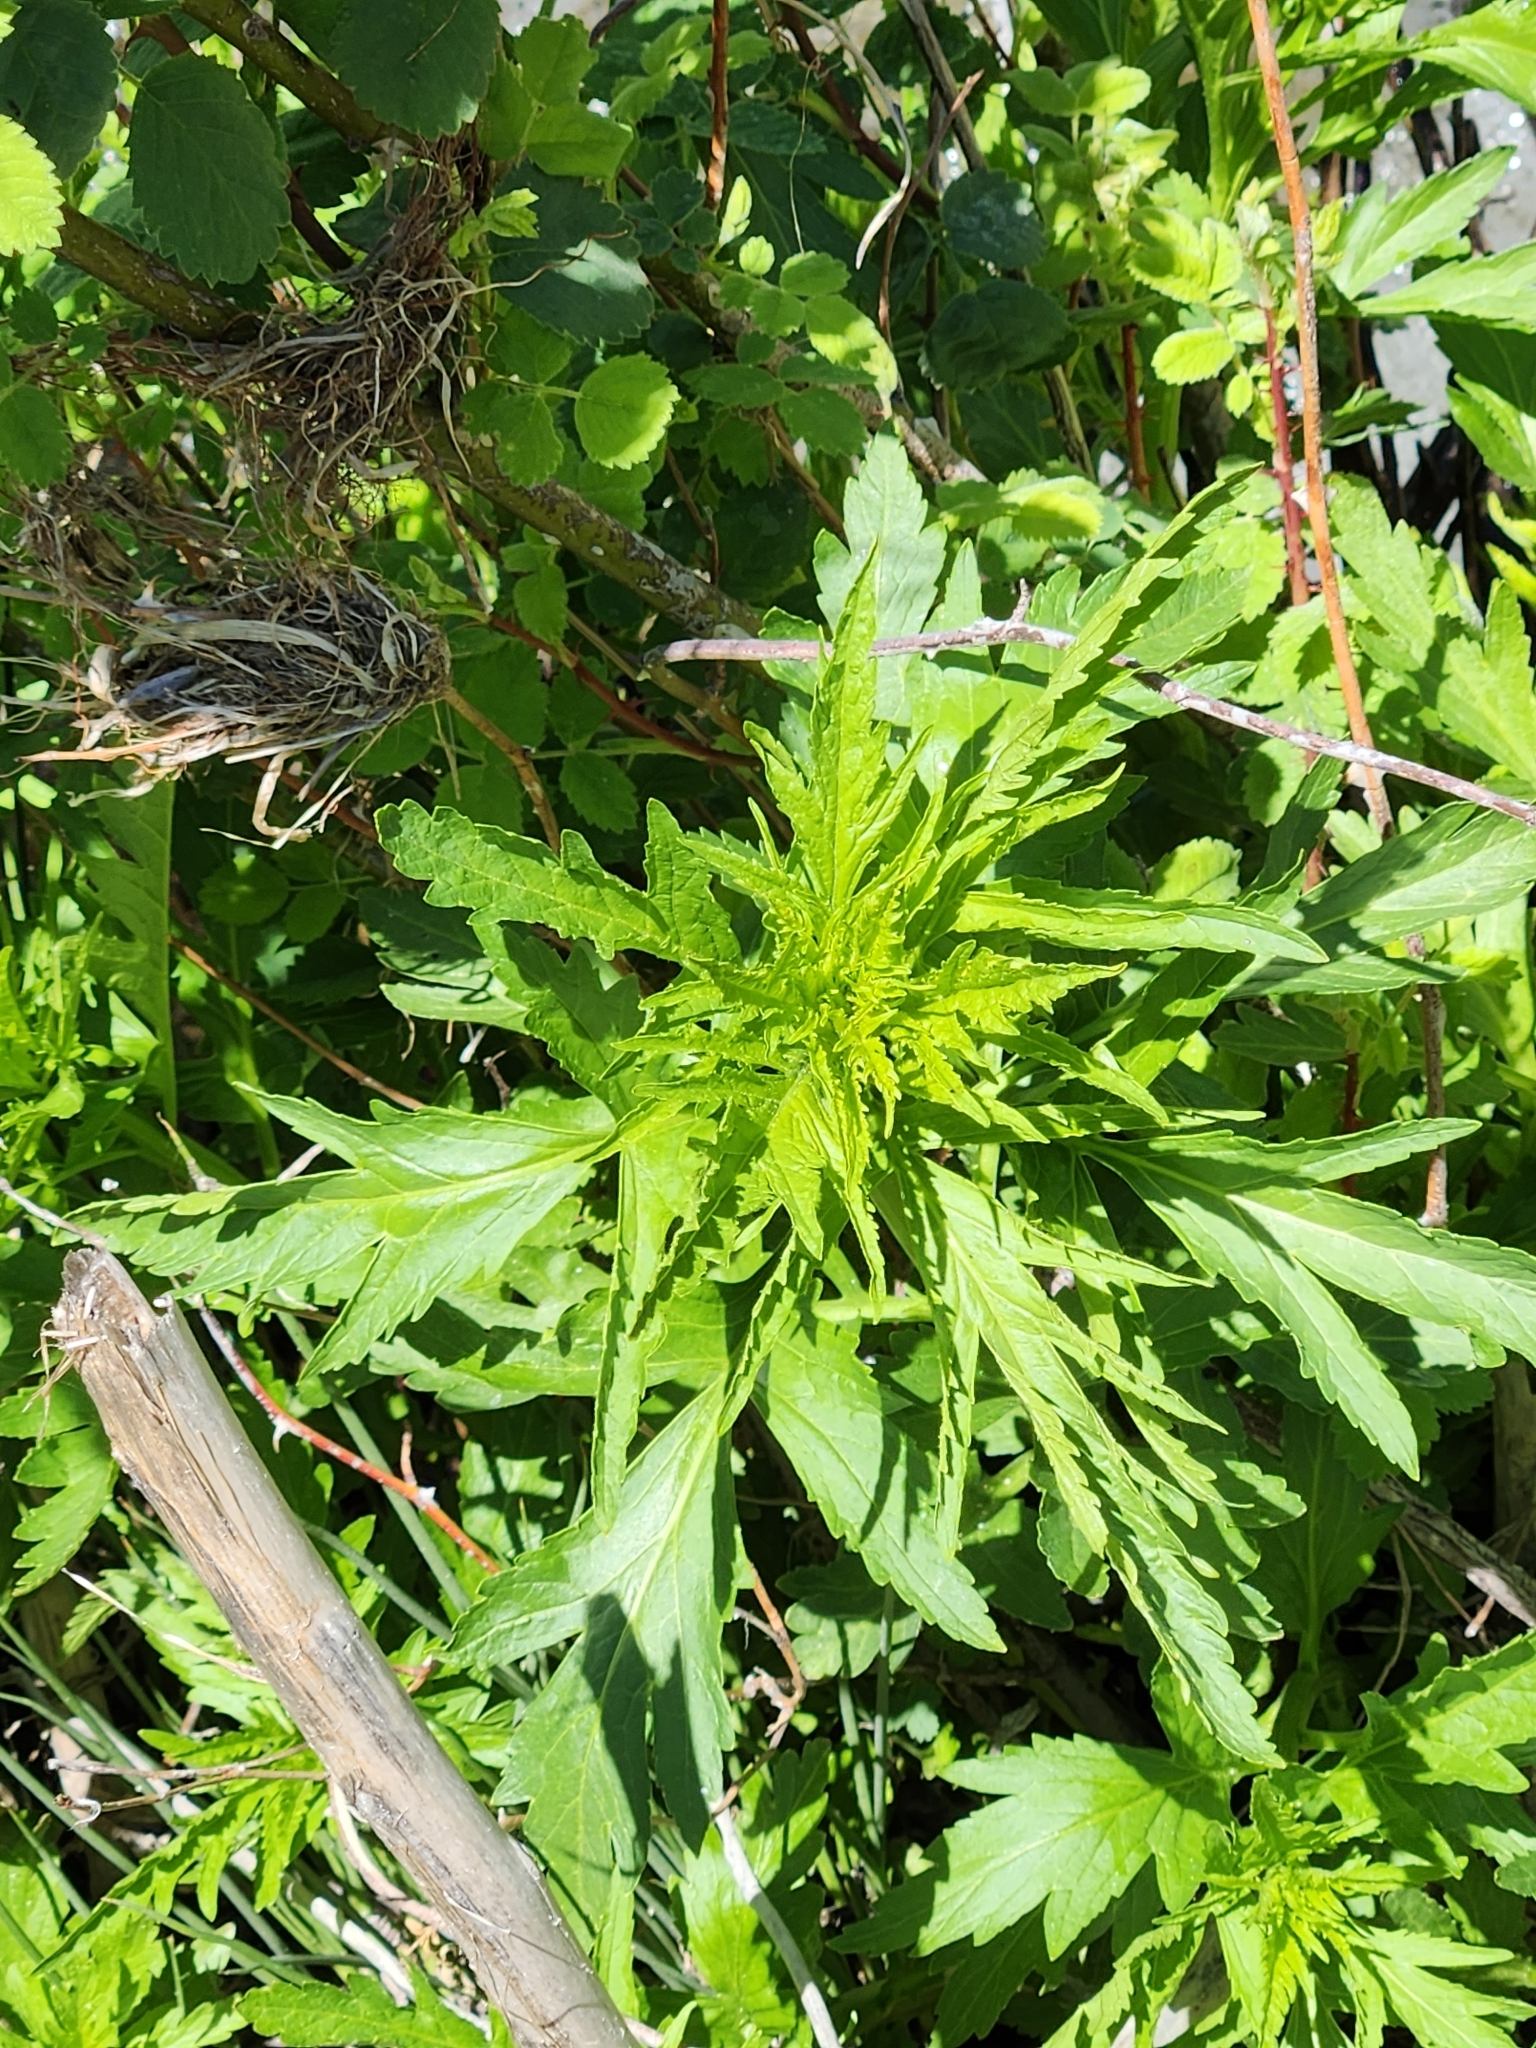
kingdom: Plantae
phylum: Tracheophyta
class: Magnoliopsida
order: Asterales
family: Asteraceae
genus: Artemisia
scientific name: Artemisia douglasiana
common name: Northwest mugwort
